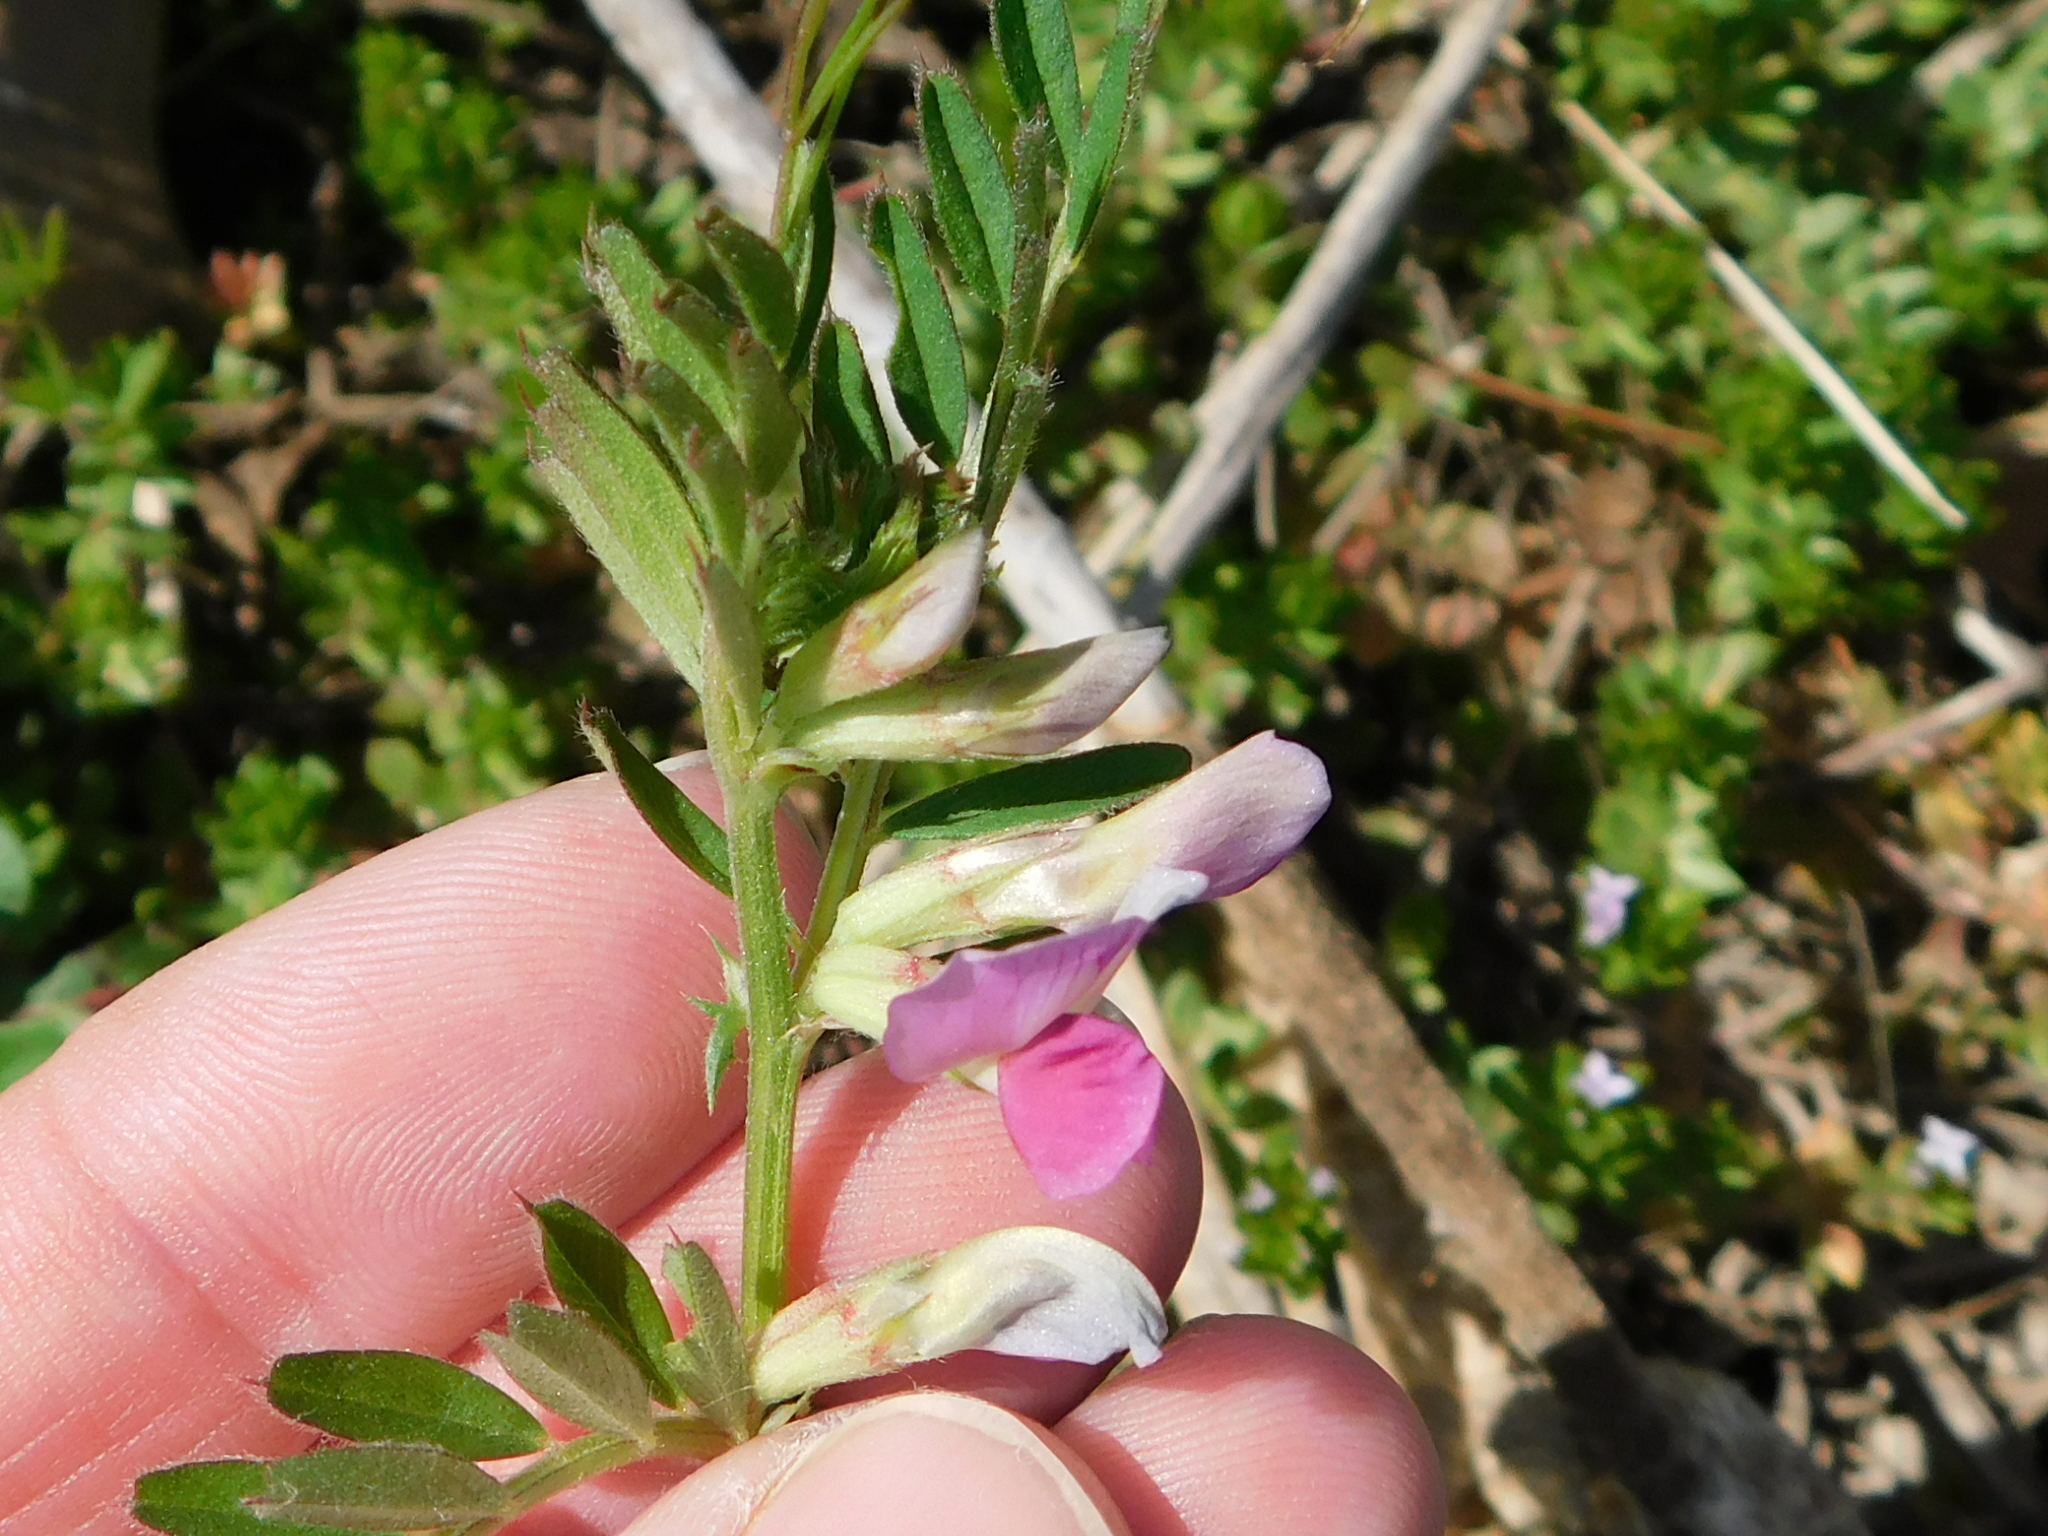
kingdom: Plantae
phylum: Tracheophyta
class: Magnoliopsida
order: Fabales
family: Fabaceae
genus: Vicia
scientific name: Vicia sativa
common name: Garden vetch
